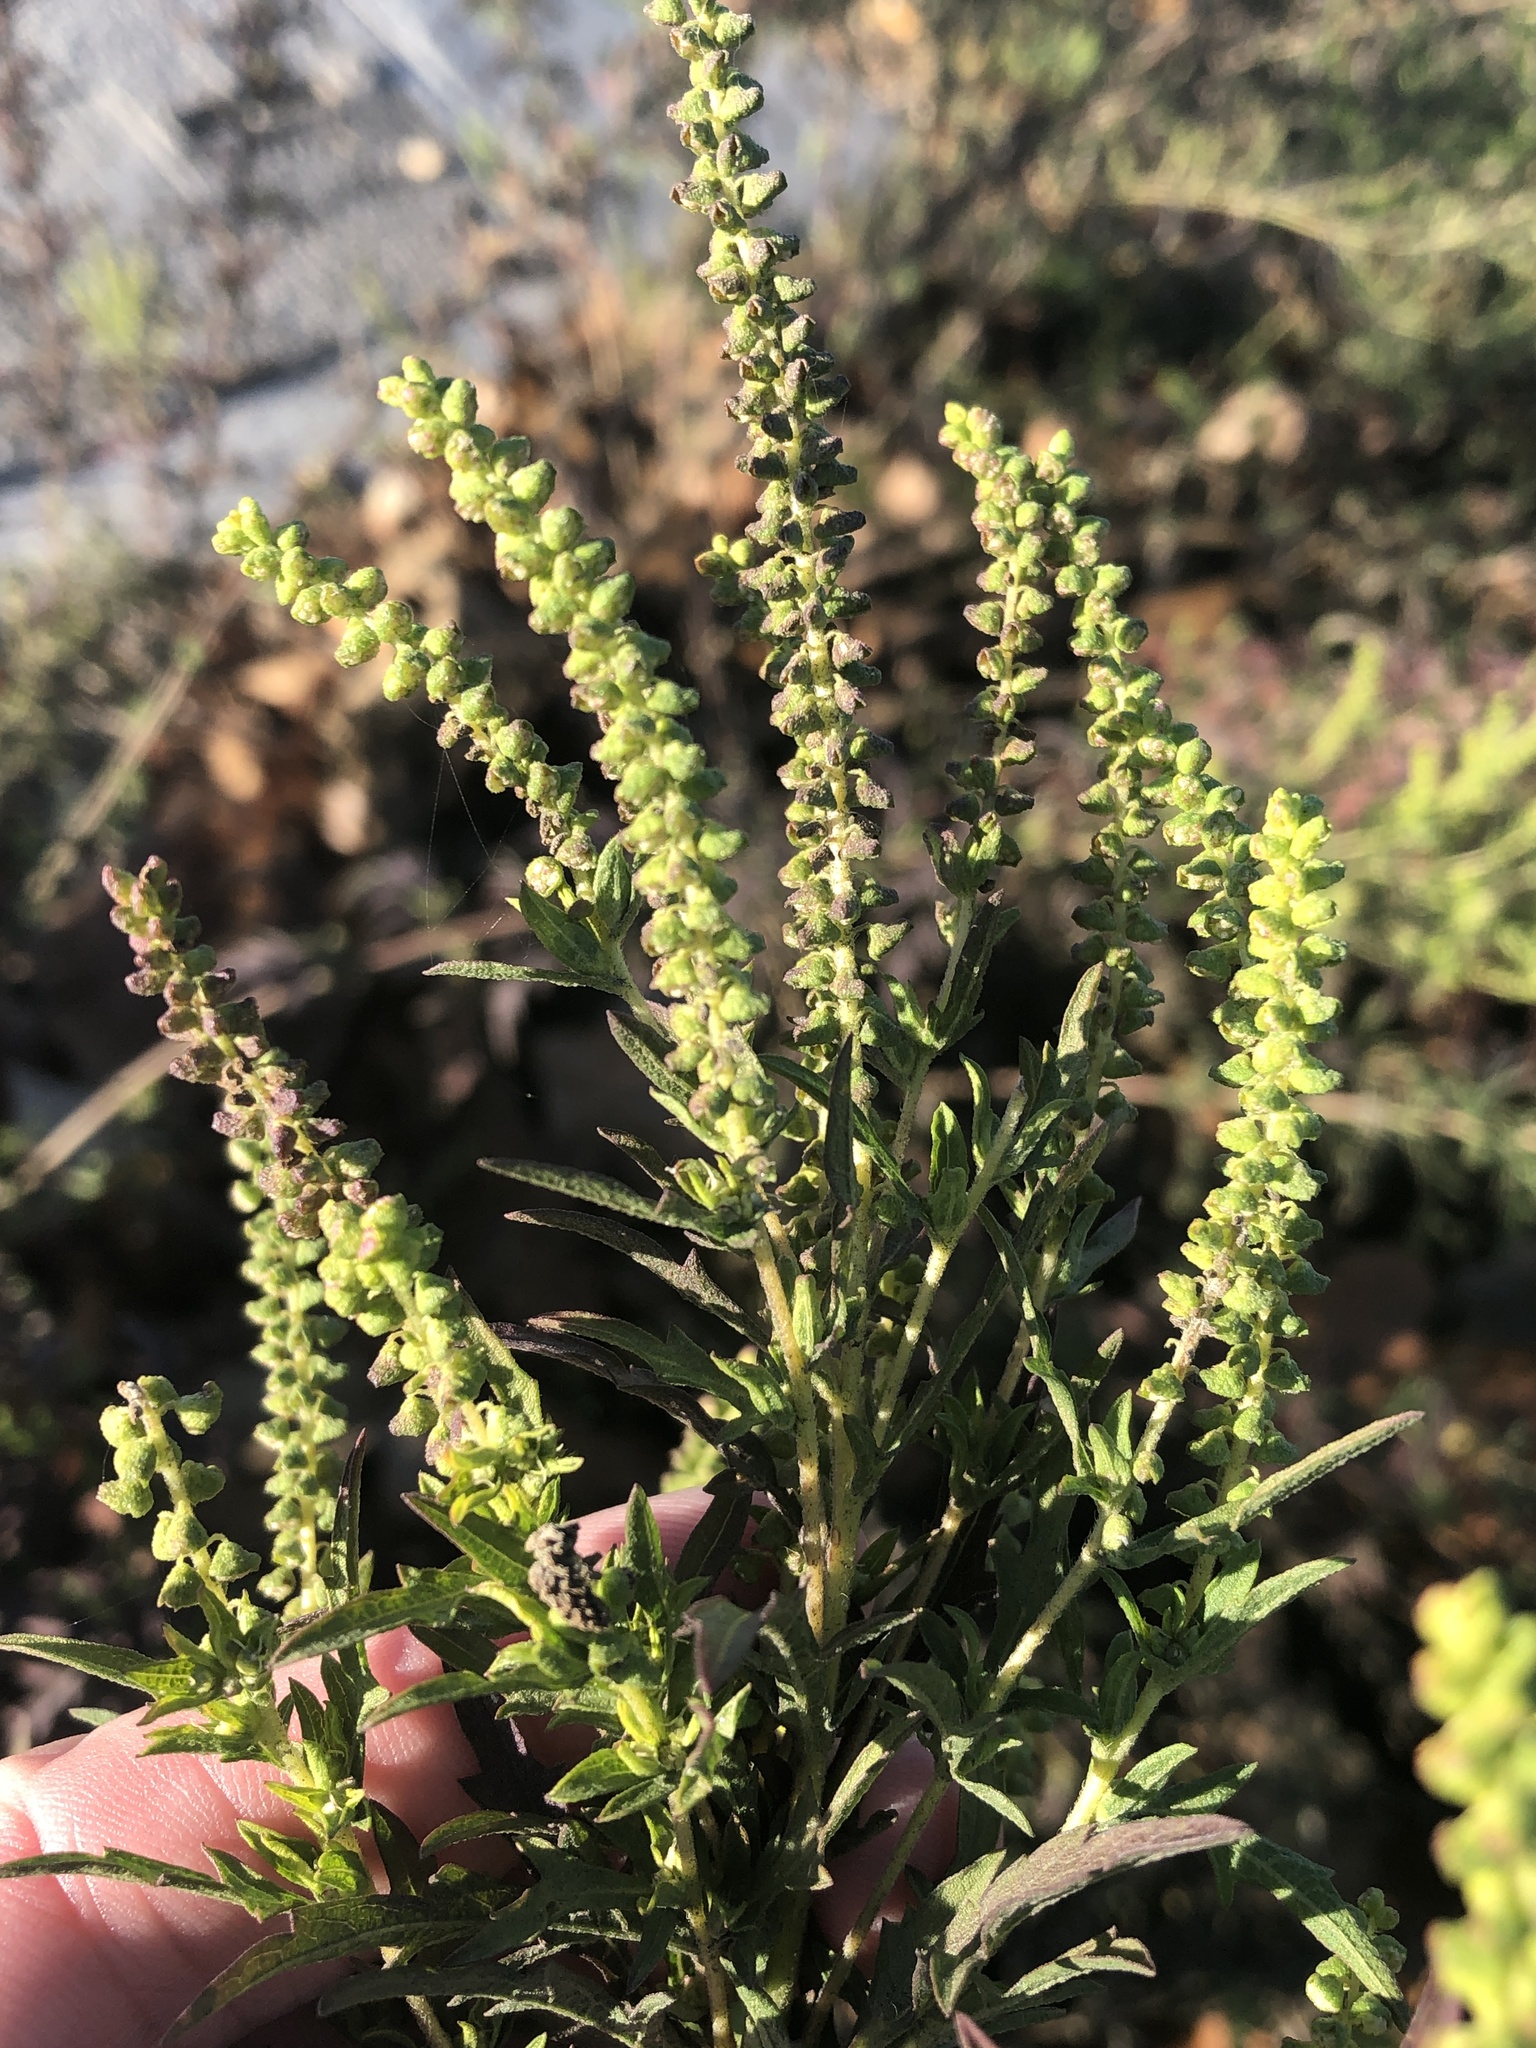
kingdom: Plantae
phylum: Tracheophyta
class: Magnoliopsida
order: Asterales
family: Asteraceae
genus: Ambrosia
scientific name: Ambrosia psilostachya
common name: Perennial ragweed
